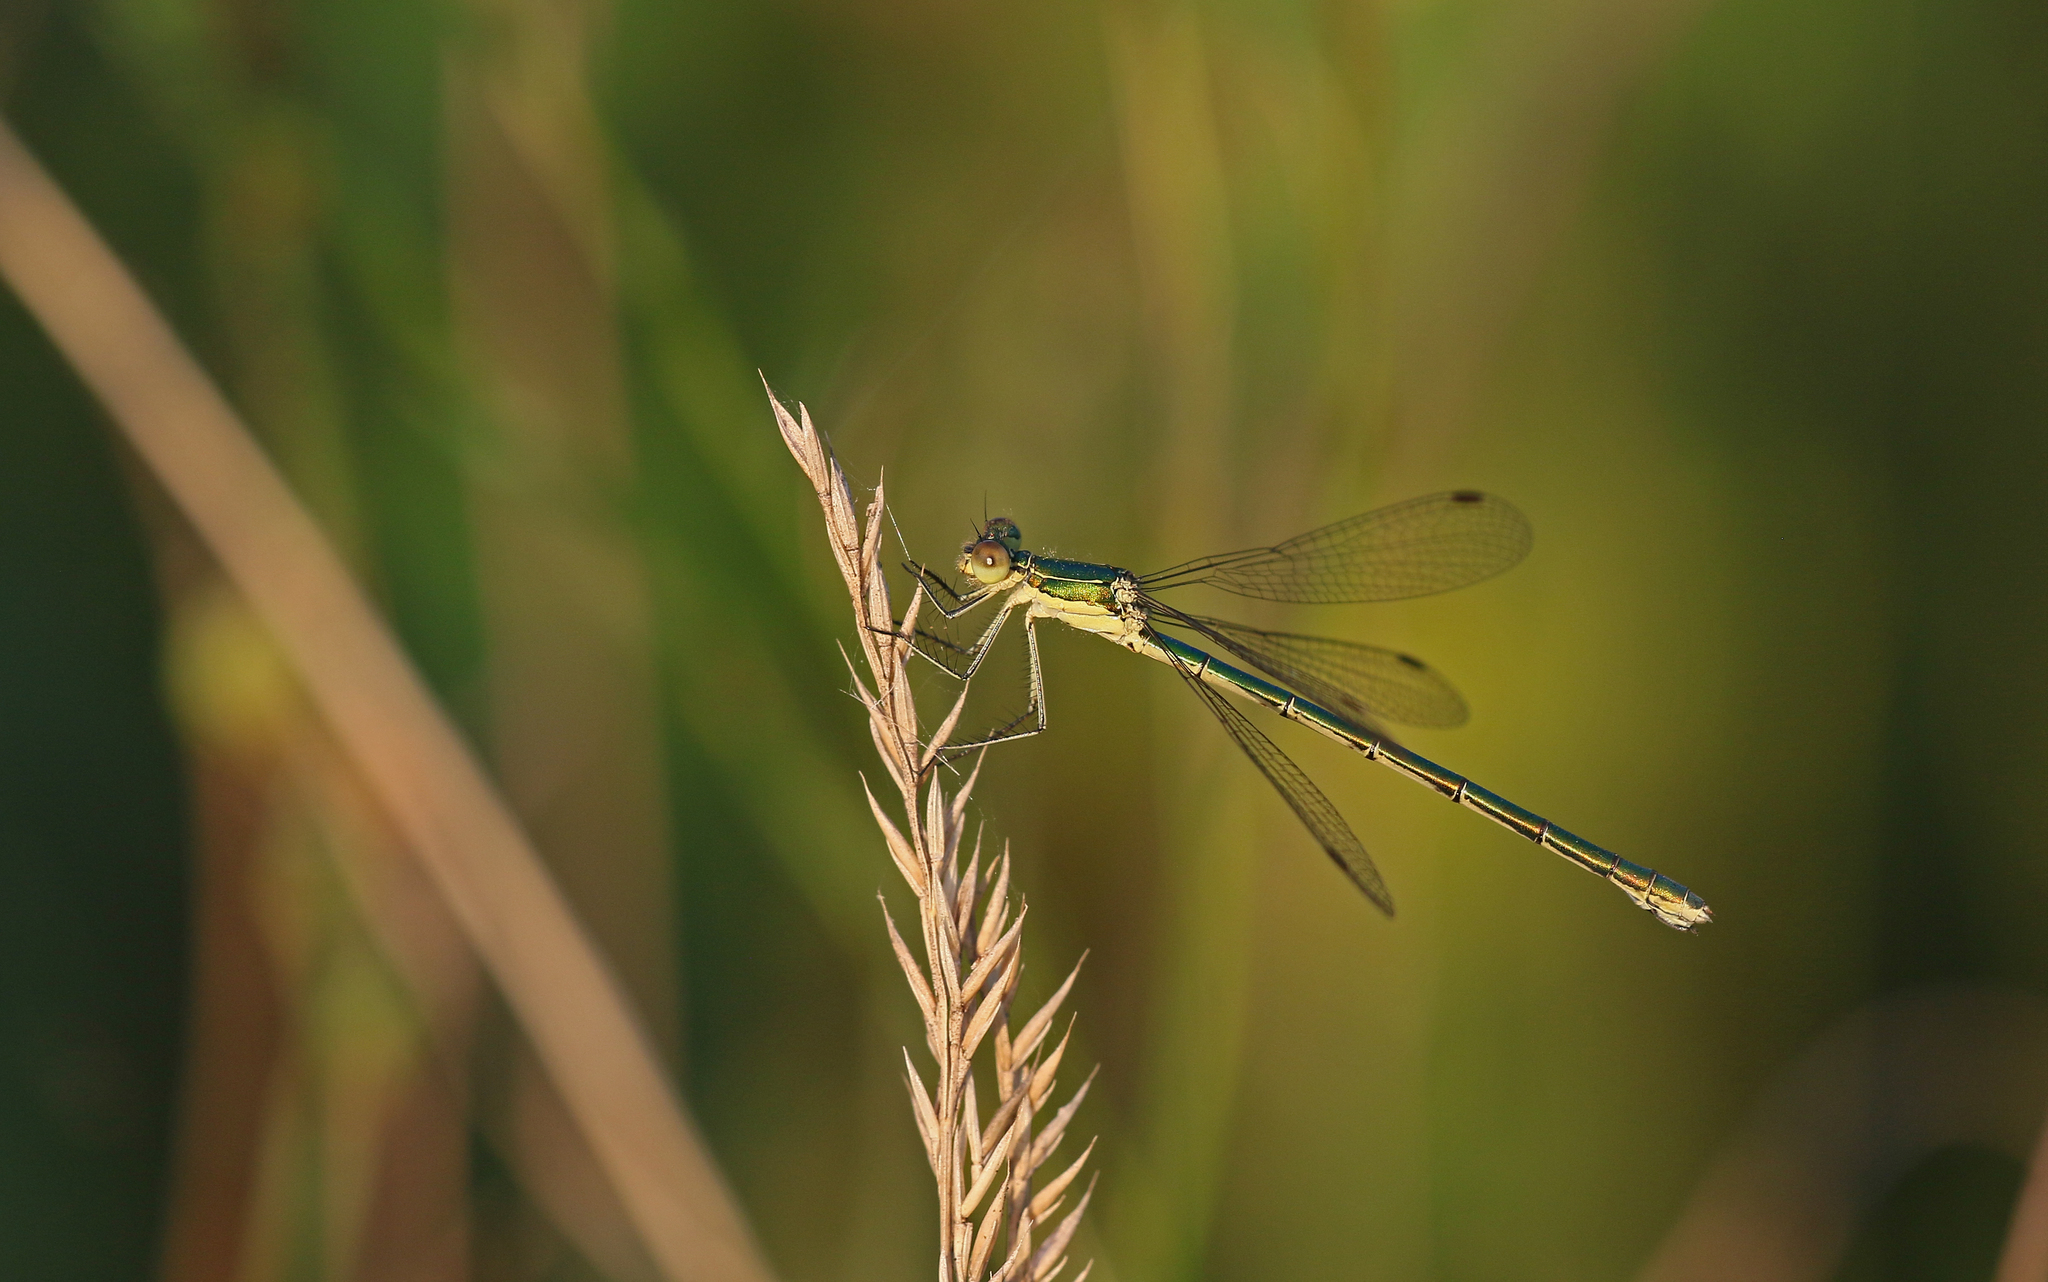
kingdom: Animalia
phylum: Arthropoda
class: Insecta
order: Odonata
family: Lestidae
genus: Lestes
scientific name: Lestes virens
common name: Small emerald spreadwing
